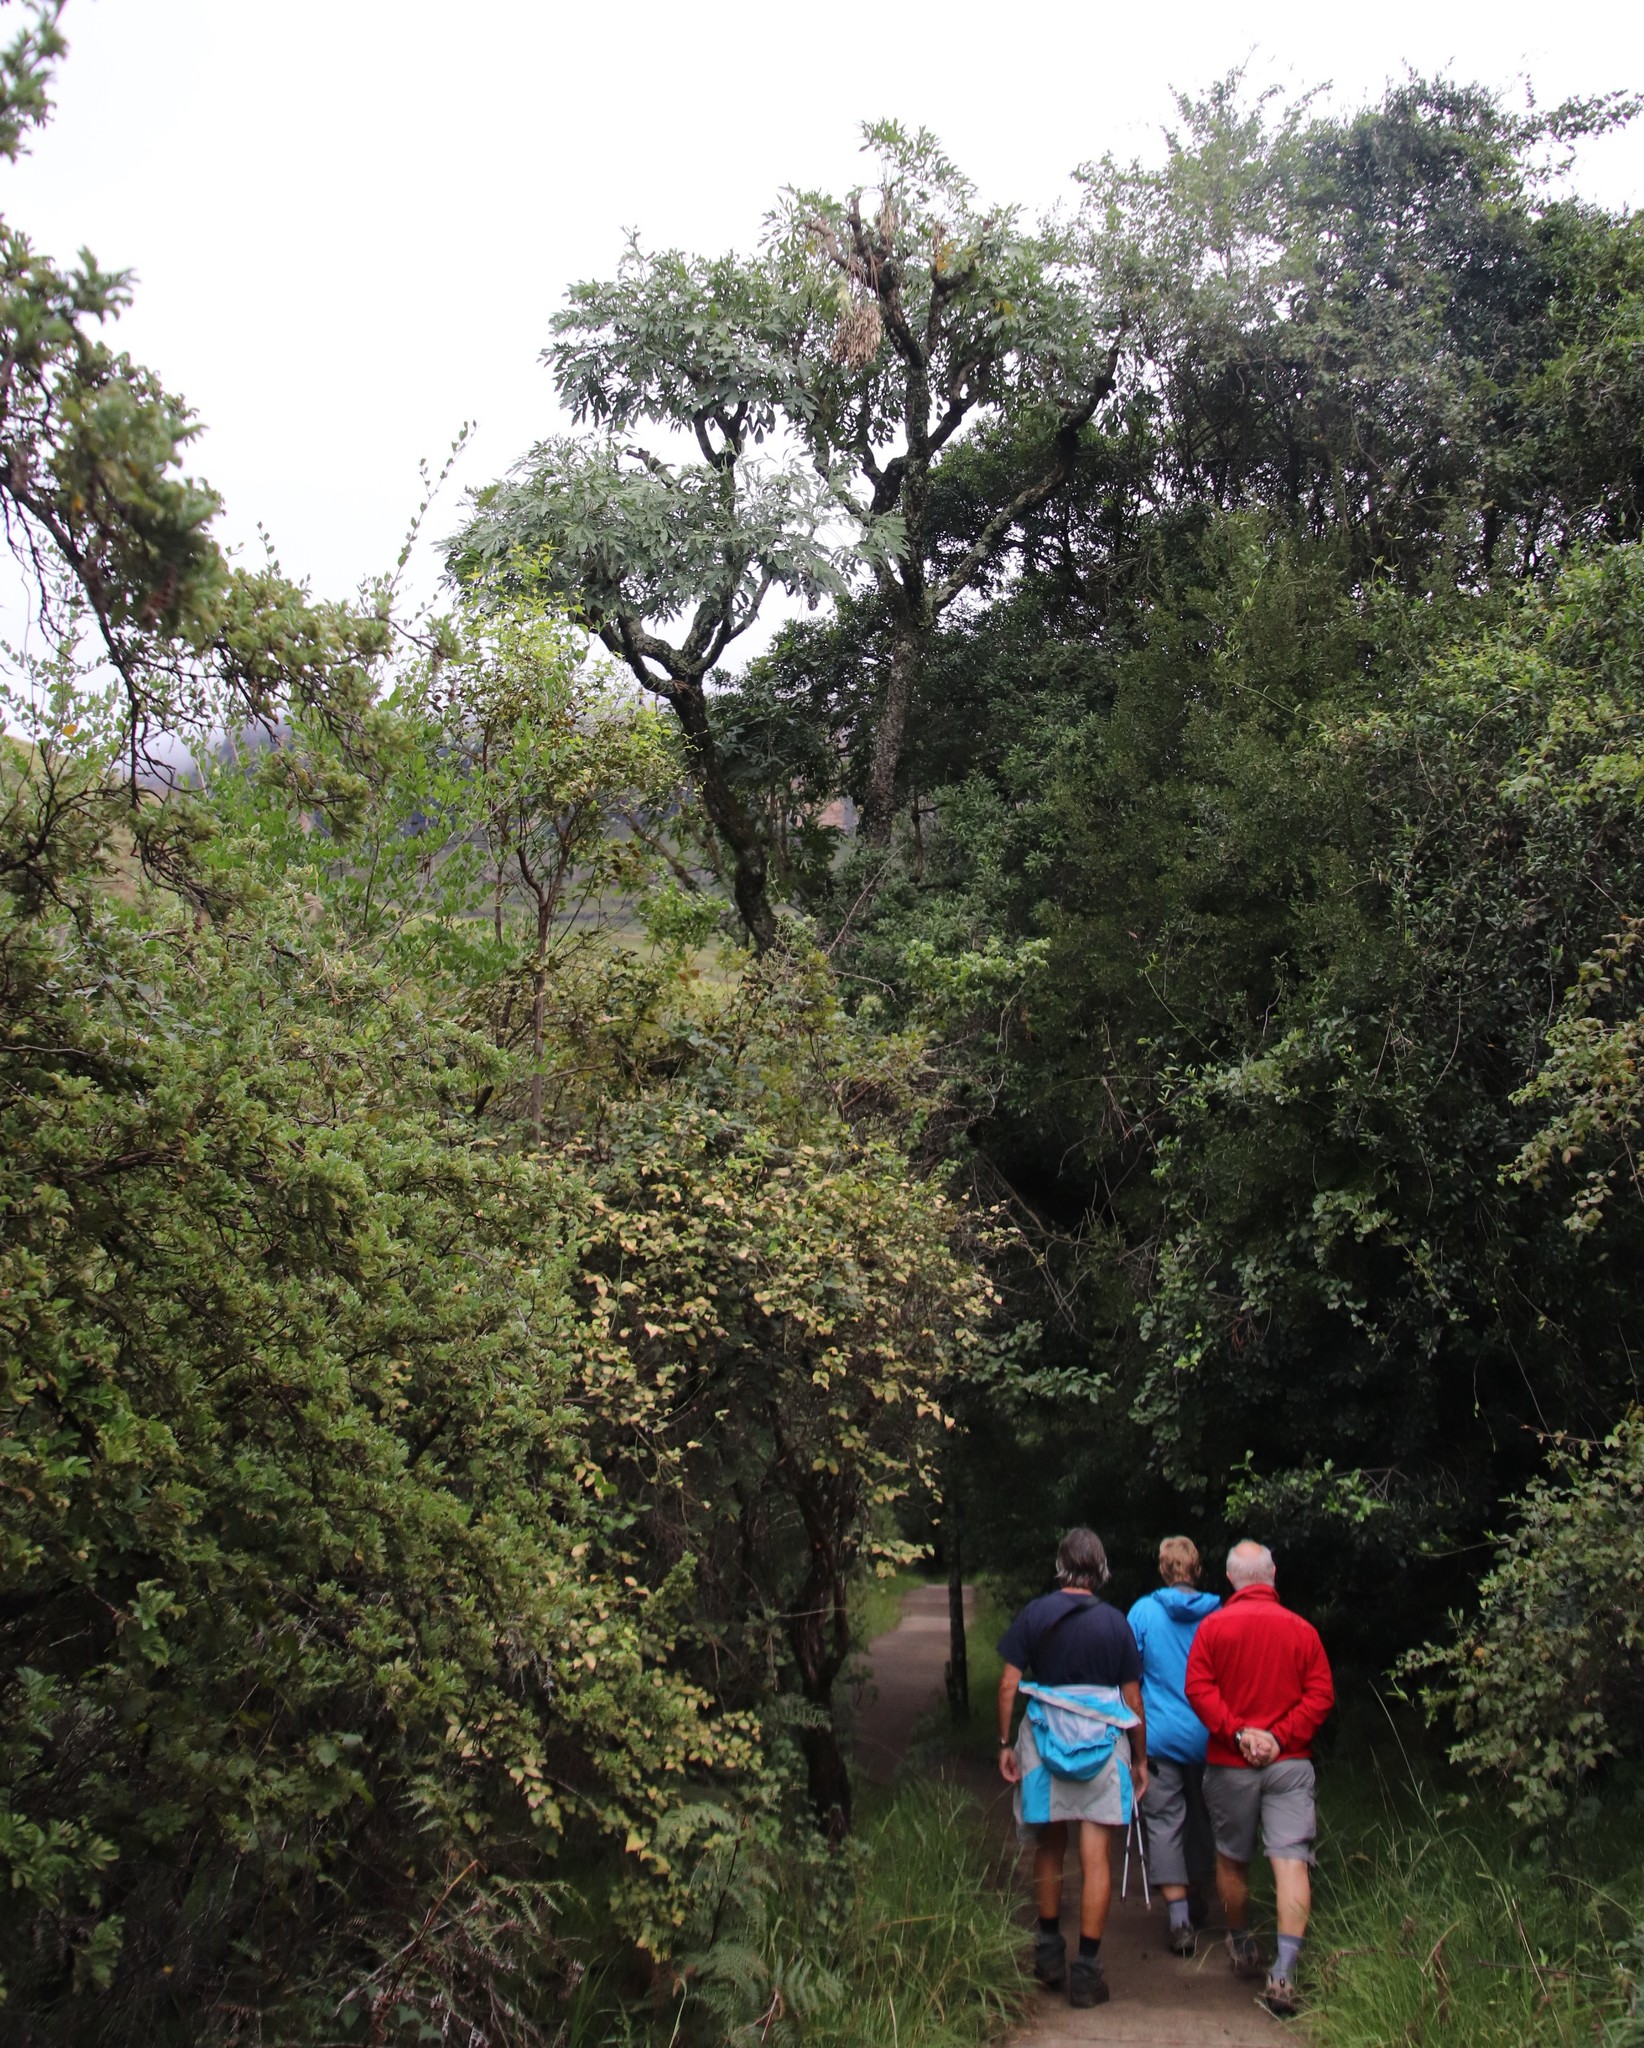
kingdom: Plantae
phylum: Tracheophyta
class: Magnoliopsida
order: Apiales
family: Araliaceae
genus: Cussonia
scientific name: Cussonia spicata
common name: Common cabbagetree
